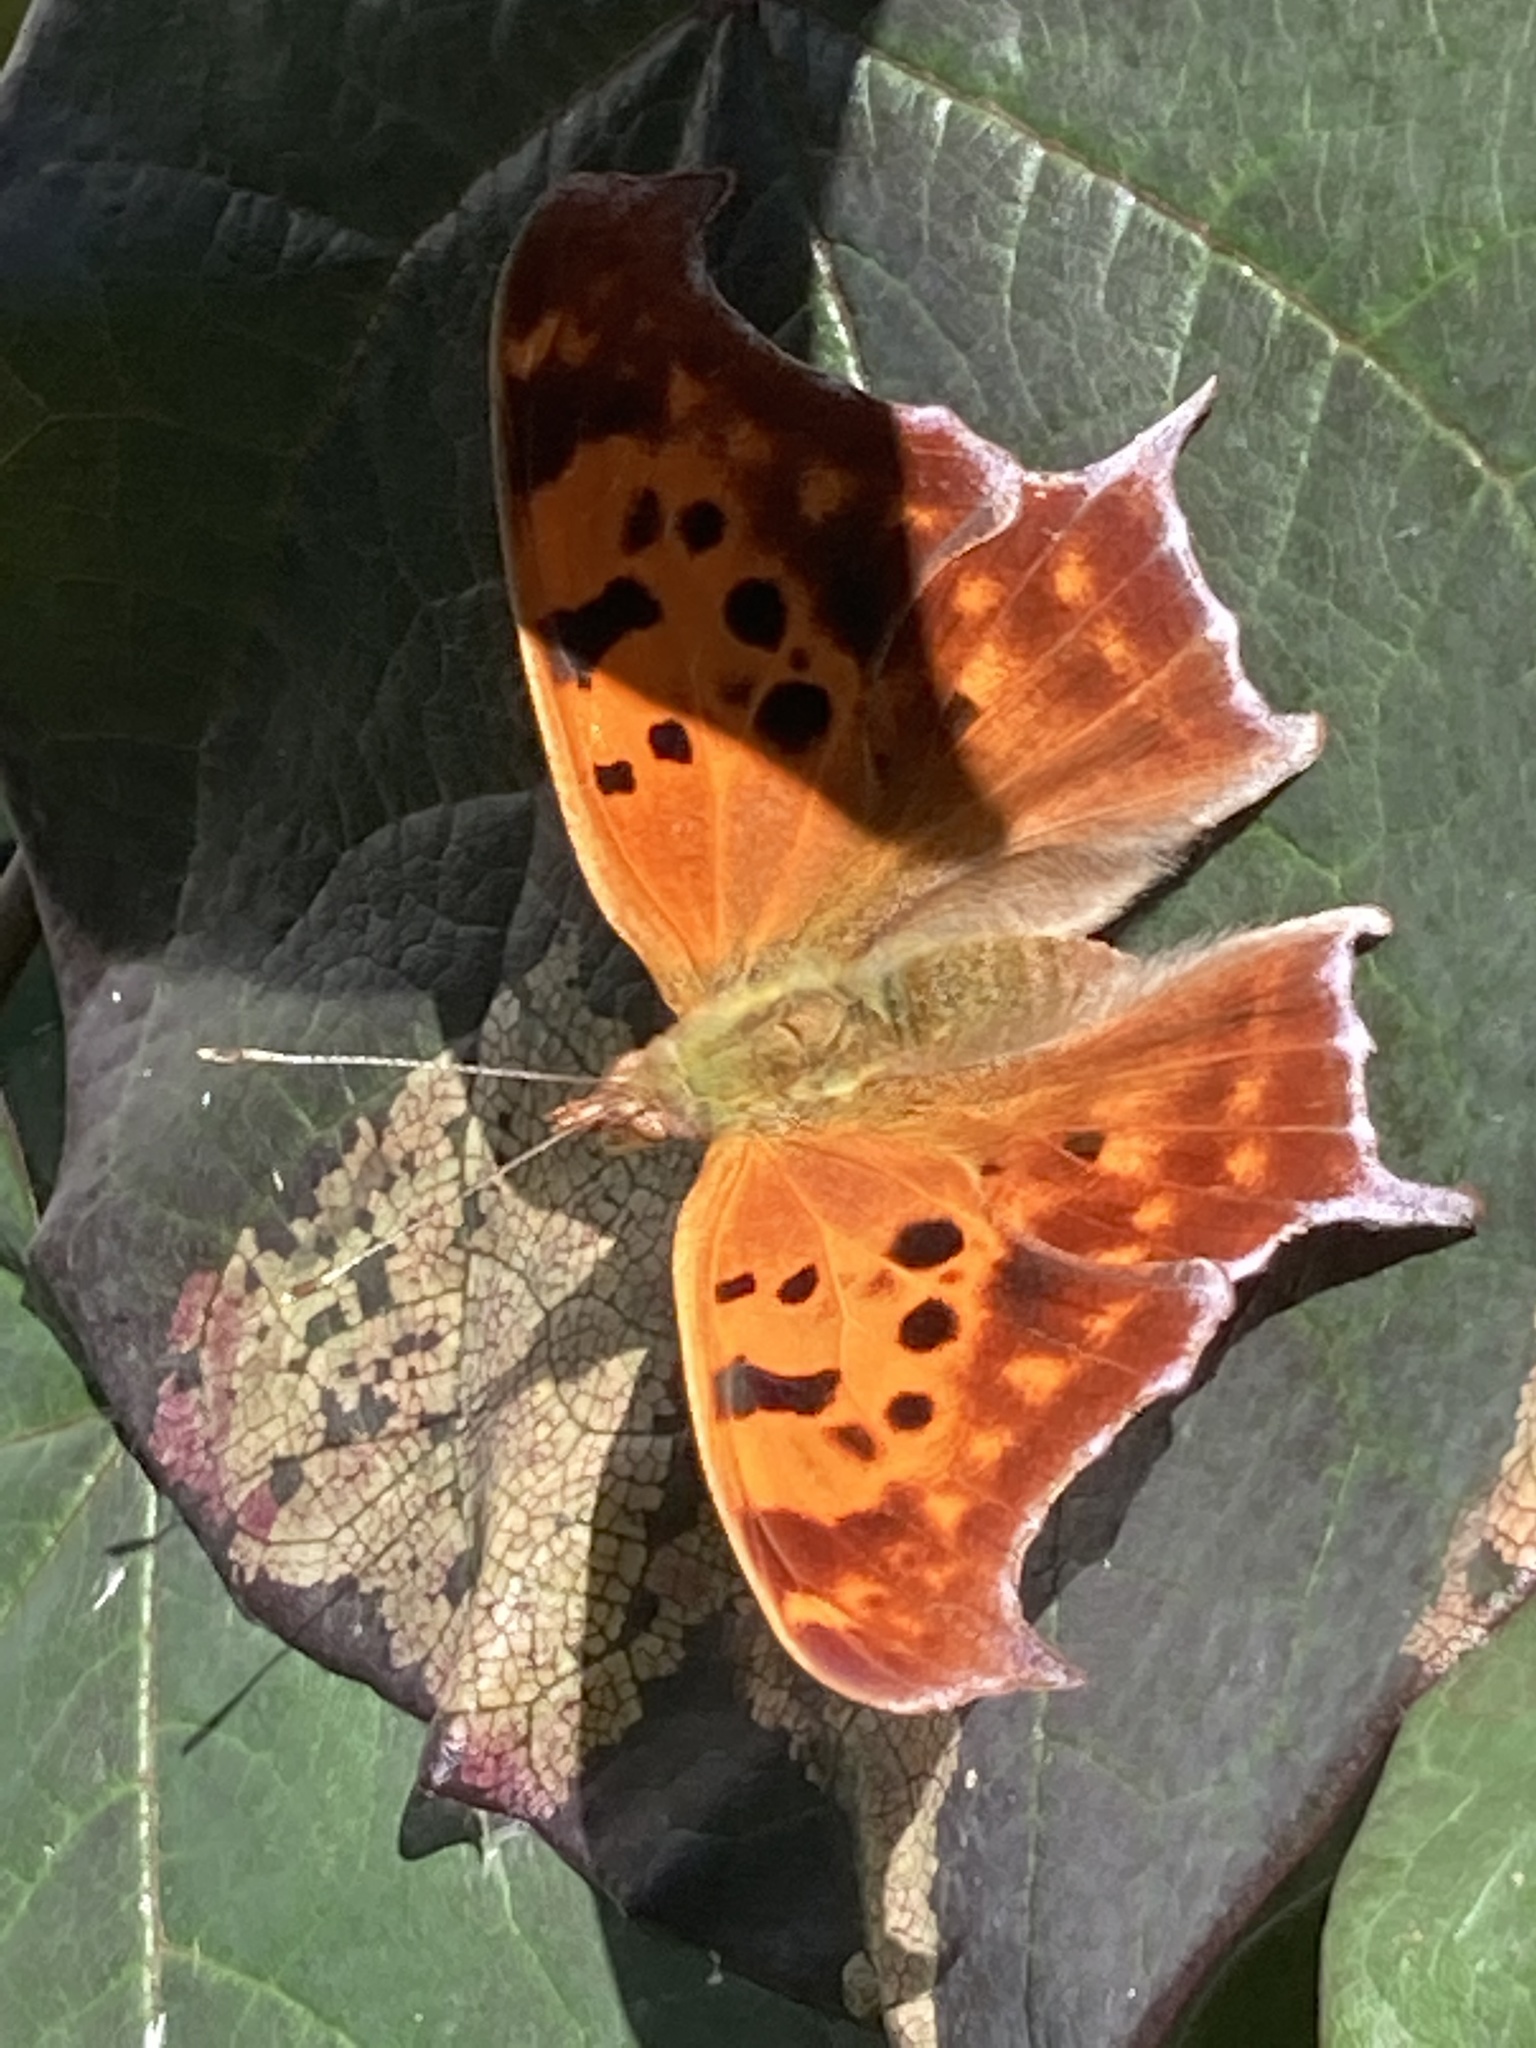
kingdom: Animalia
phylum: Arthropoda
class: Insecta
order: Lepidoptera
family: Nymphalidae
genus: Polygonia
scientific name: Polygonia interrogationis
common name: Question mark
